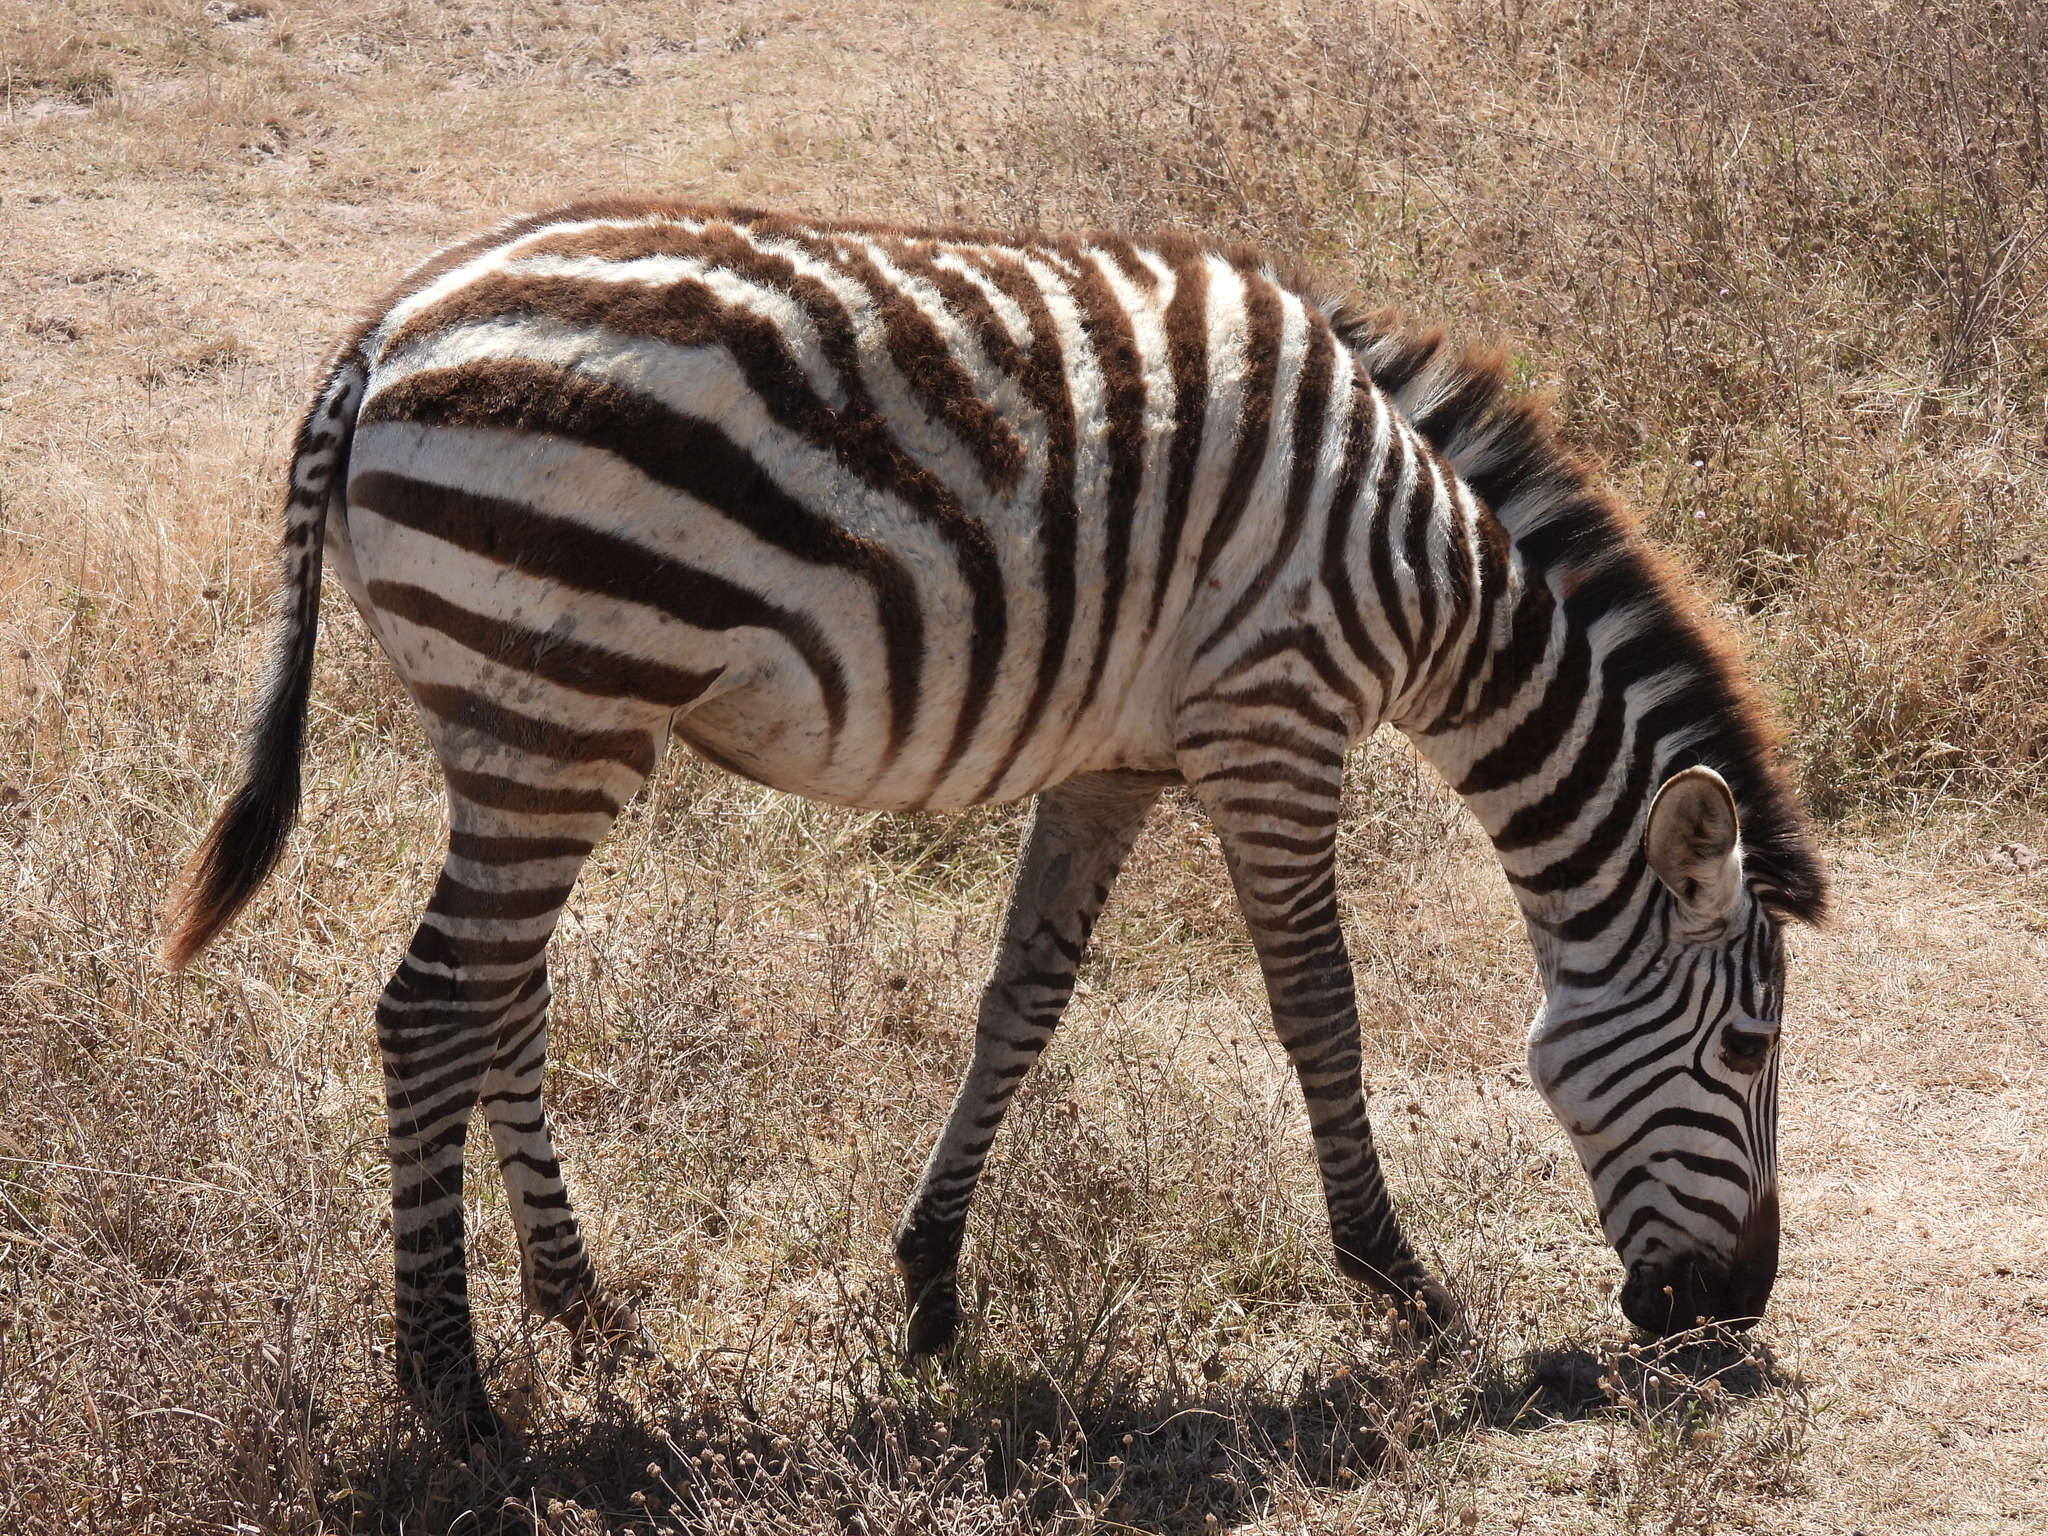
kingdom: Animalia
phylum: Chordata
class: Mammalia
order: Perissodactyla
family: Equidae
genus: Equus
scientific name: Equus quagga
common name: Plains zebra
